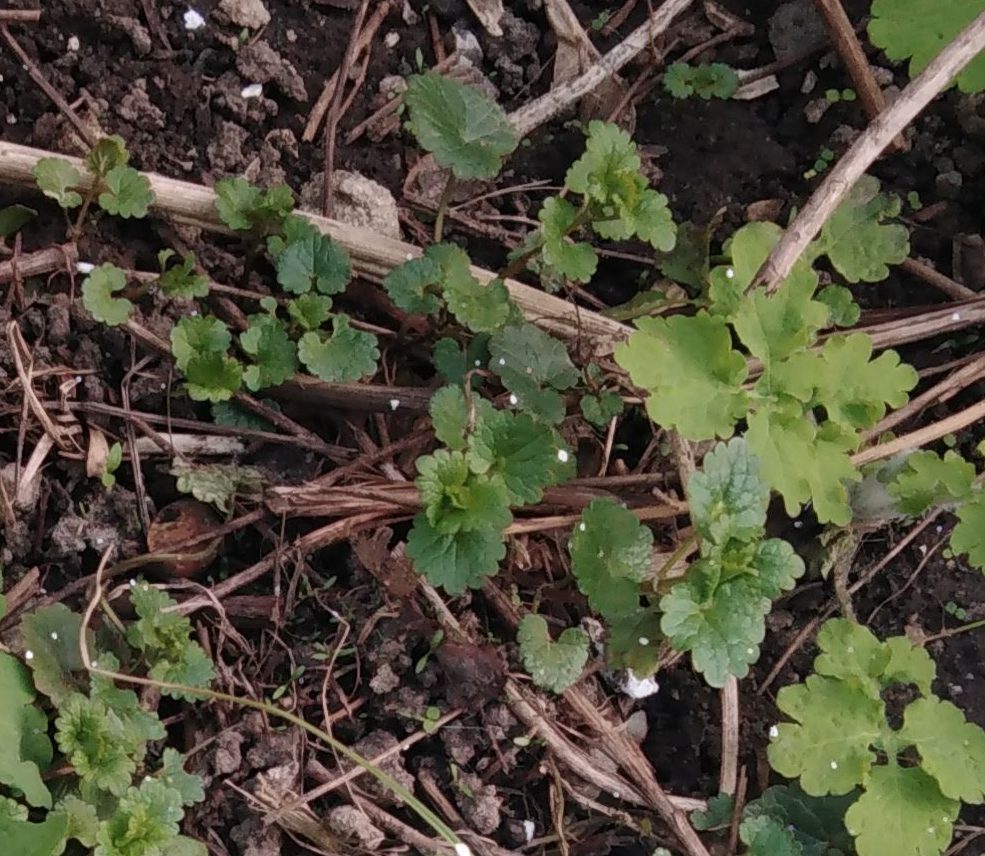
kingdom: Plantae
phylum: Tracheophyta
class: Magnoliopsida
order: Lamiales
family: Lamiaceae
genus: Glechoma
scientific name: Glechoma hederacea
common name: Ground ivy
